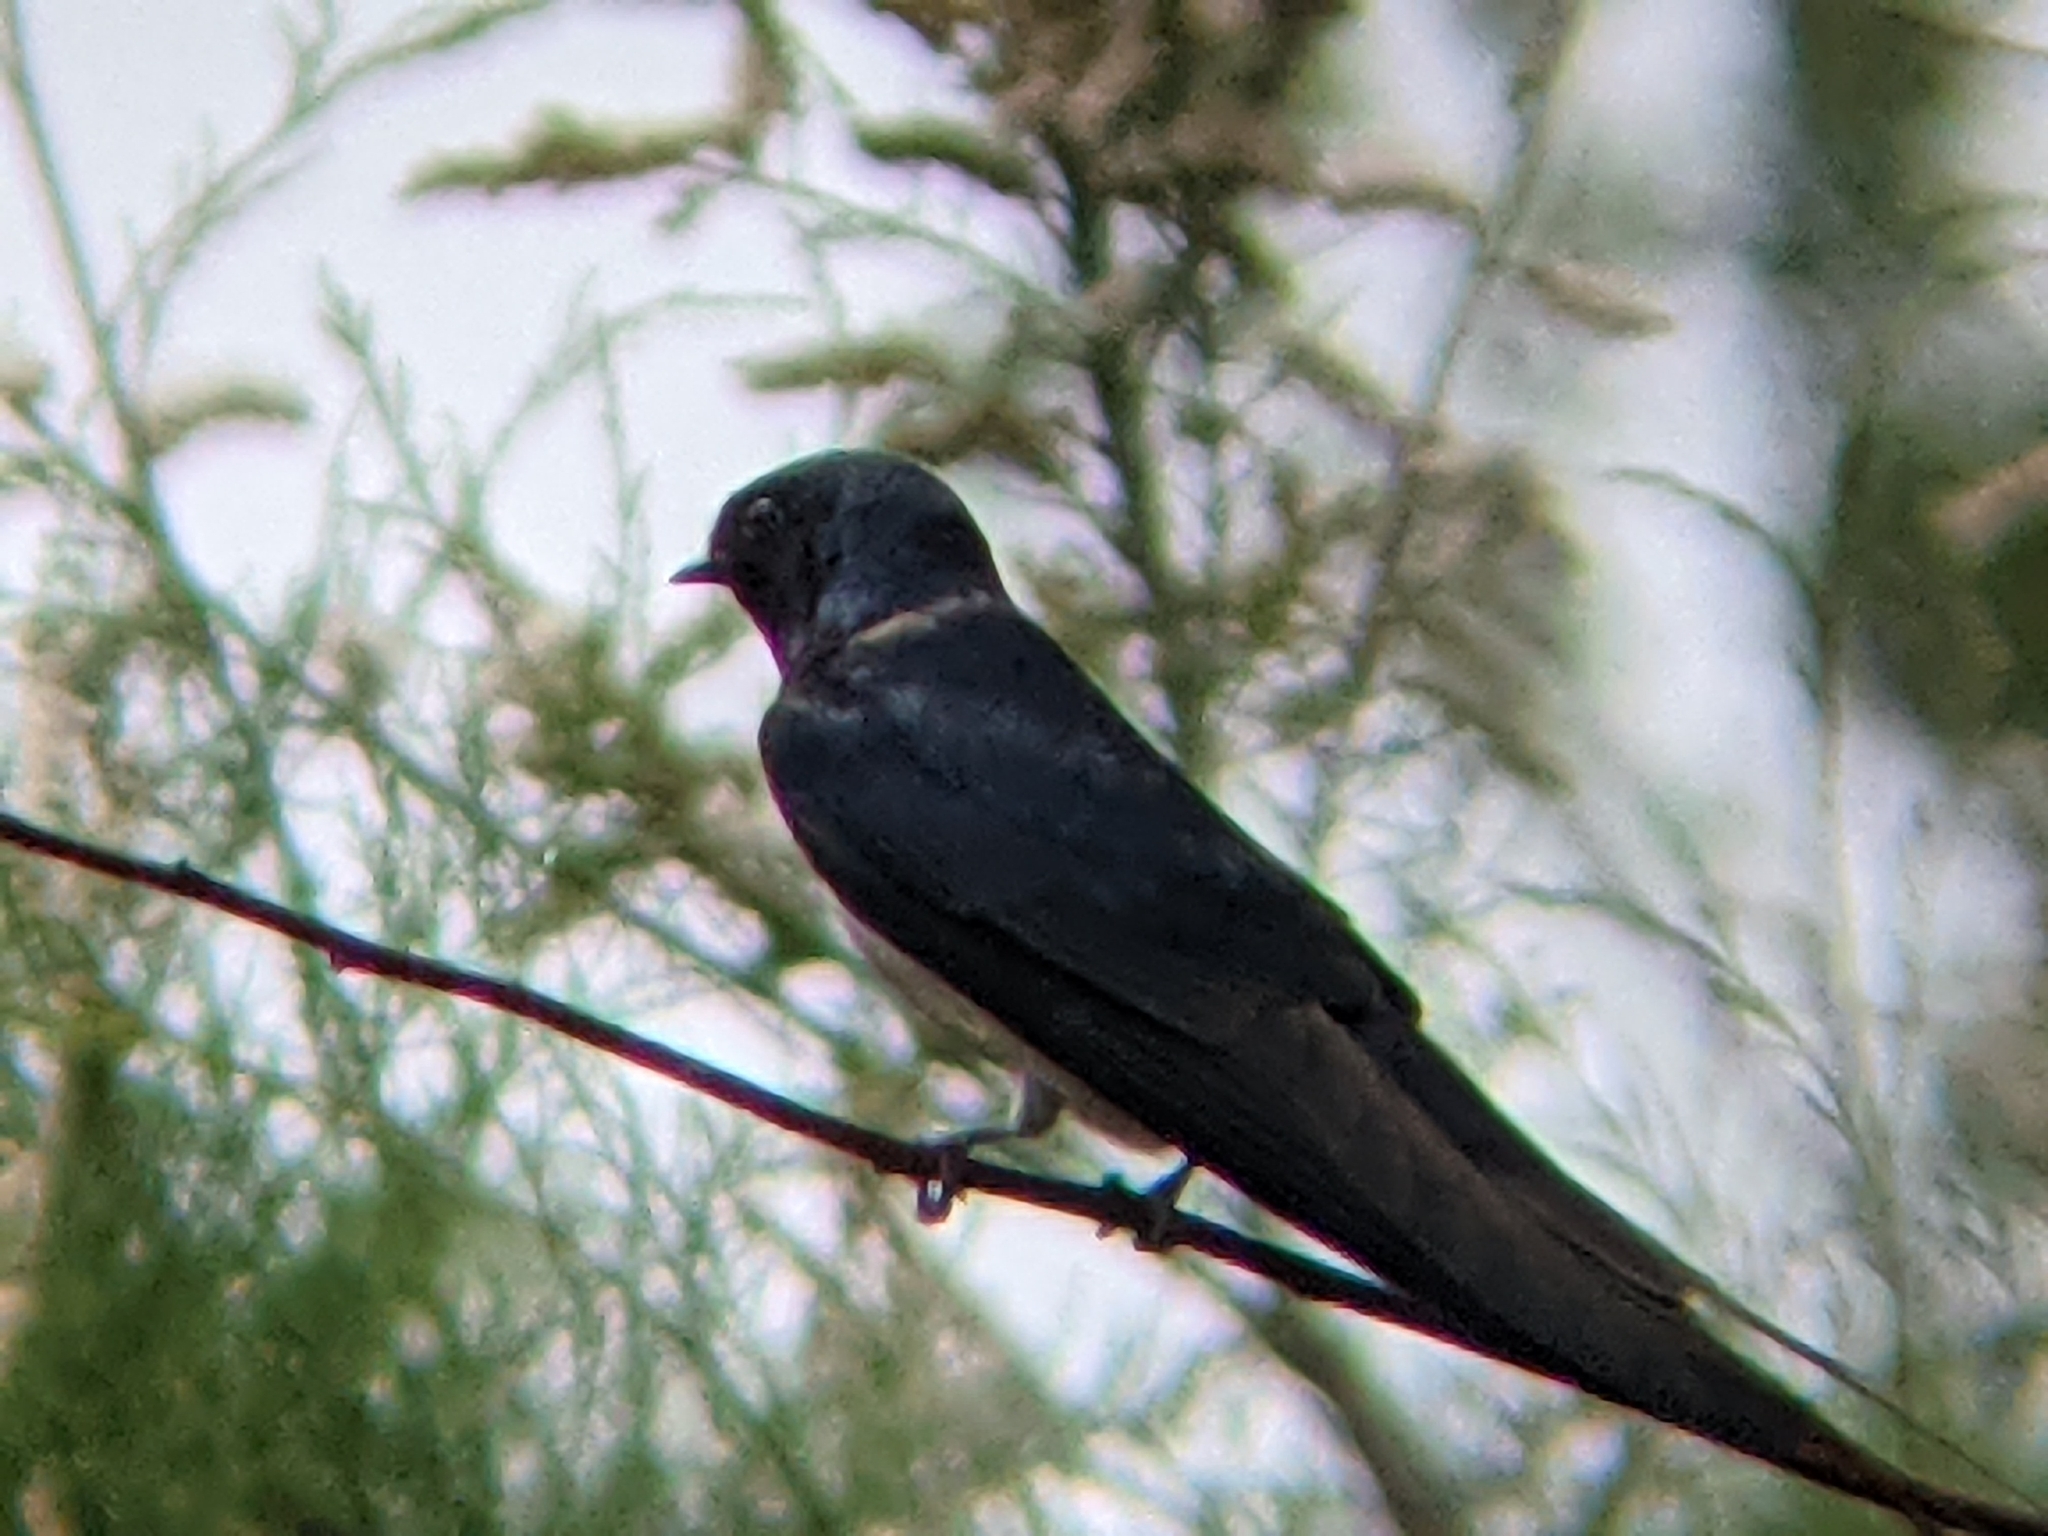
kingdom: Animalia
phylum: Chordata
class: Aves
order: Passeriformes
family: Hirundinidae
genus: Hirundo
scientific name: Hirundo rustica
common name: Barn swallow
